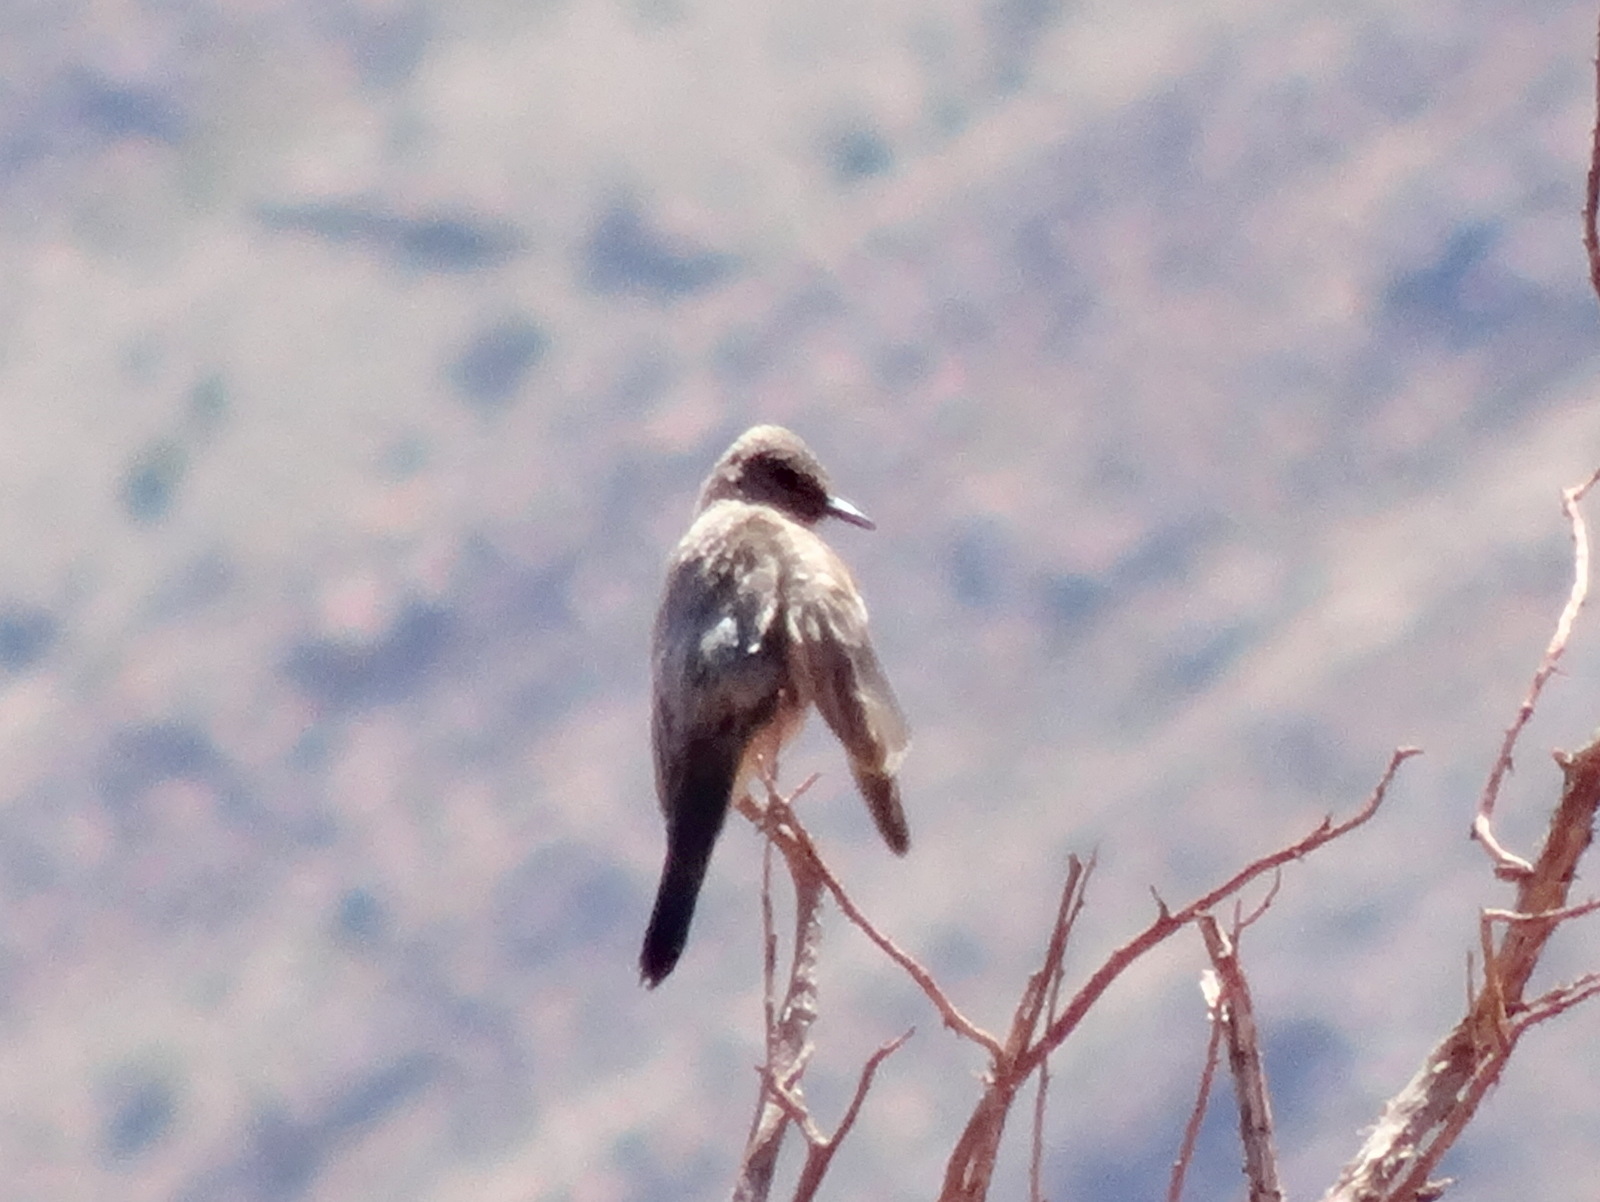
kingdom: Animalia
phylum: Chordata
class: Aves
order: Passeriformes
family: Tyrannidae
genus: Sayornis
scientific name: Sayornis saya
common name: Say's phoebe
